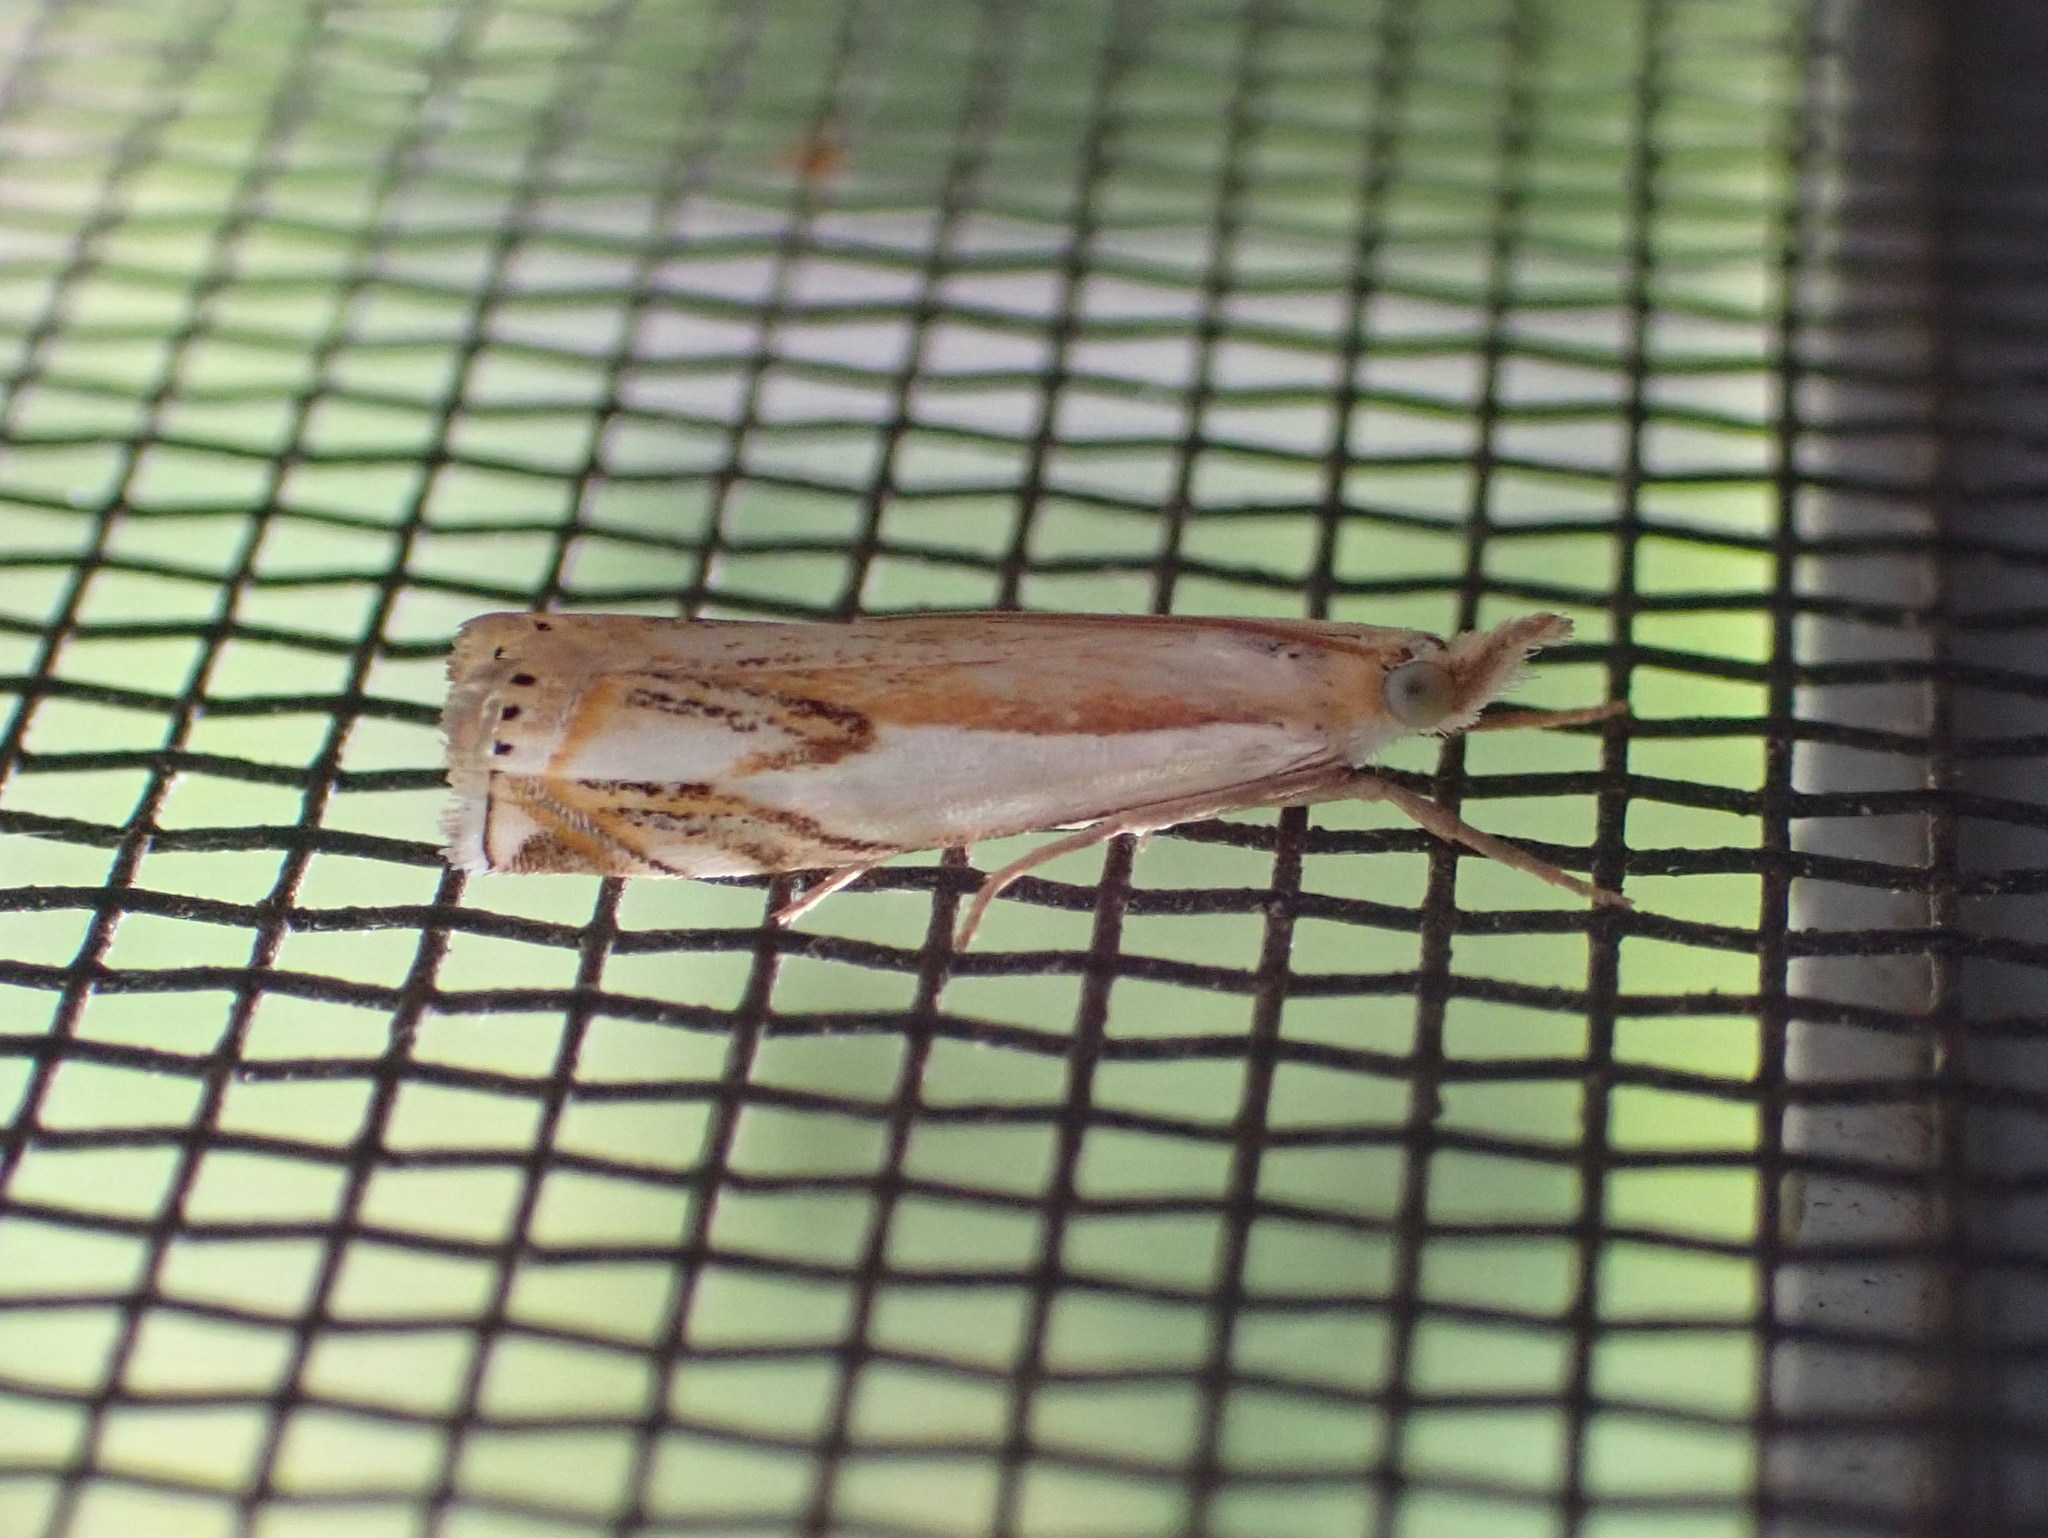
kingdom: Animalia
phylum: Arthropoda
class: Insecta
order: Lepidoptera
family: Crambidae
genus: Crambus
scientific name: Crambus agitatellus
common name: Double-banded grass-veneer
